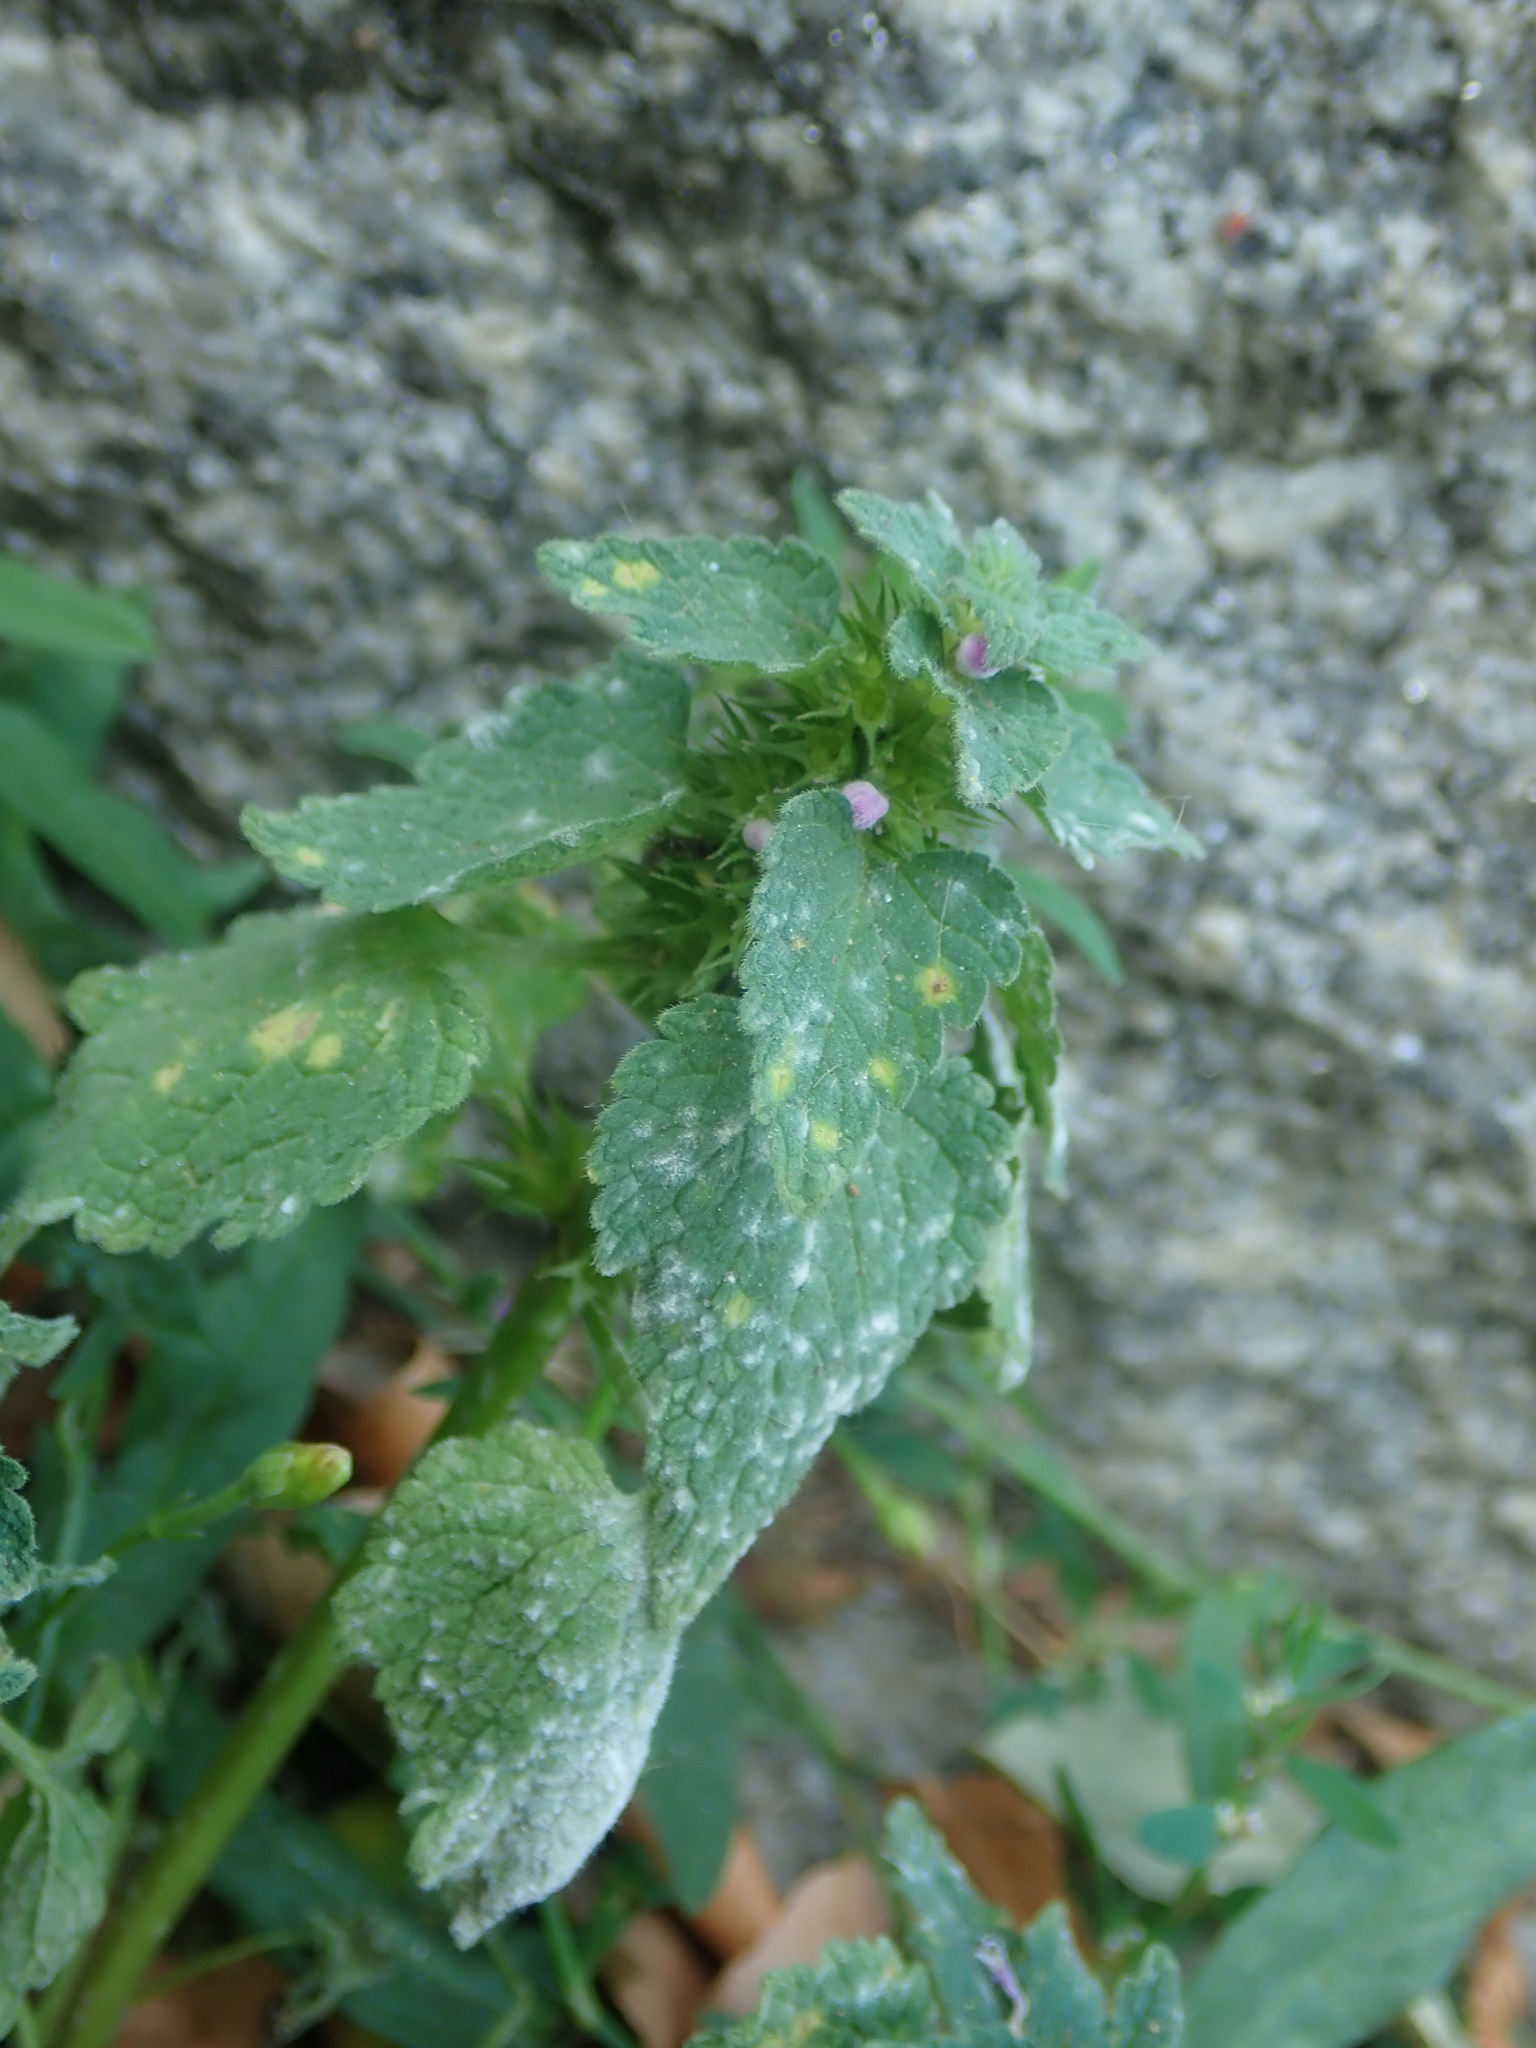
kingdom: Plantae
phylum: Tracheophyta
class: Magnoliopsida
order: Lamiales
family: Lamiaceae
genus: Lamium
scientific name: Lamium purpureum
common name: Red dead-nettle
